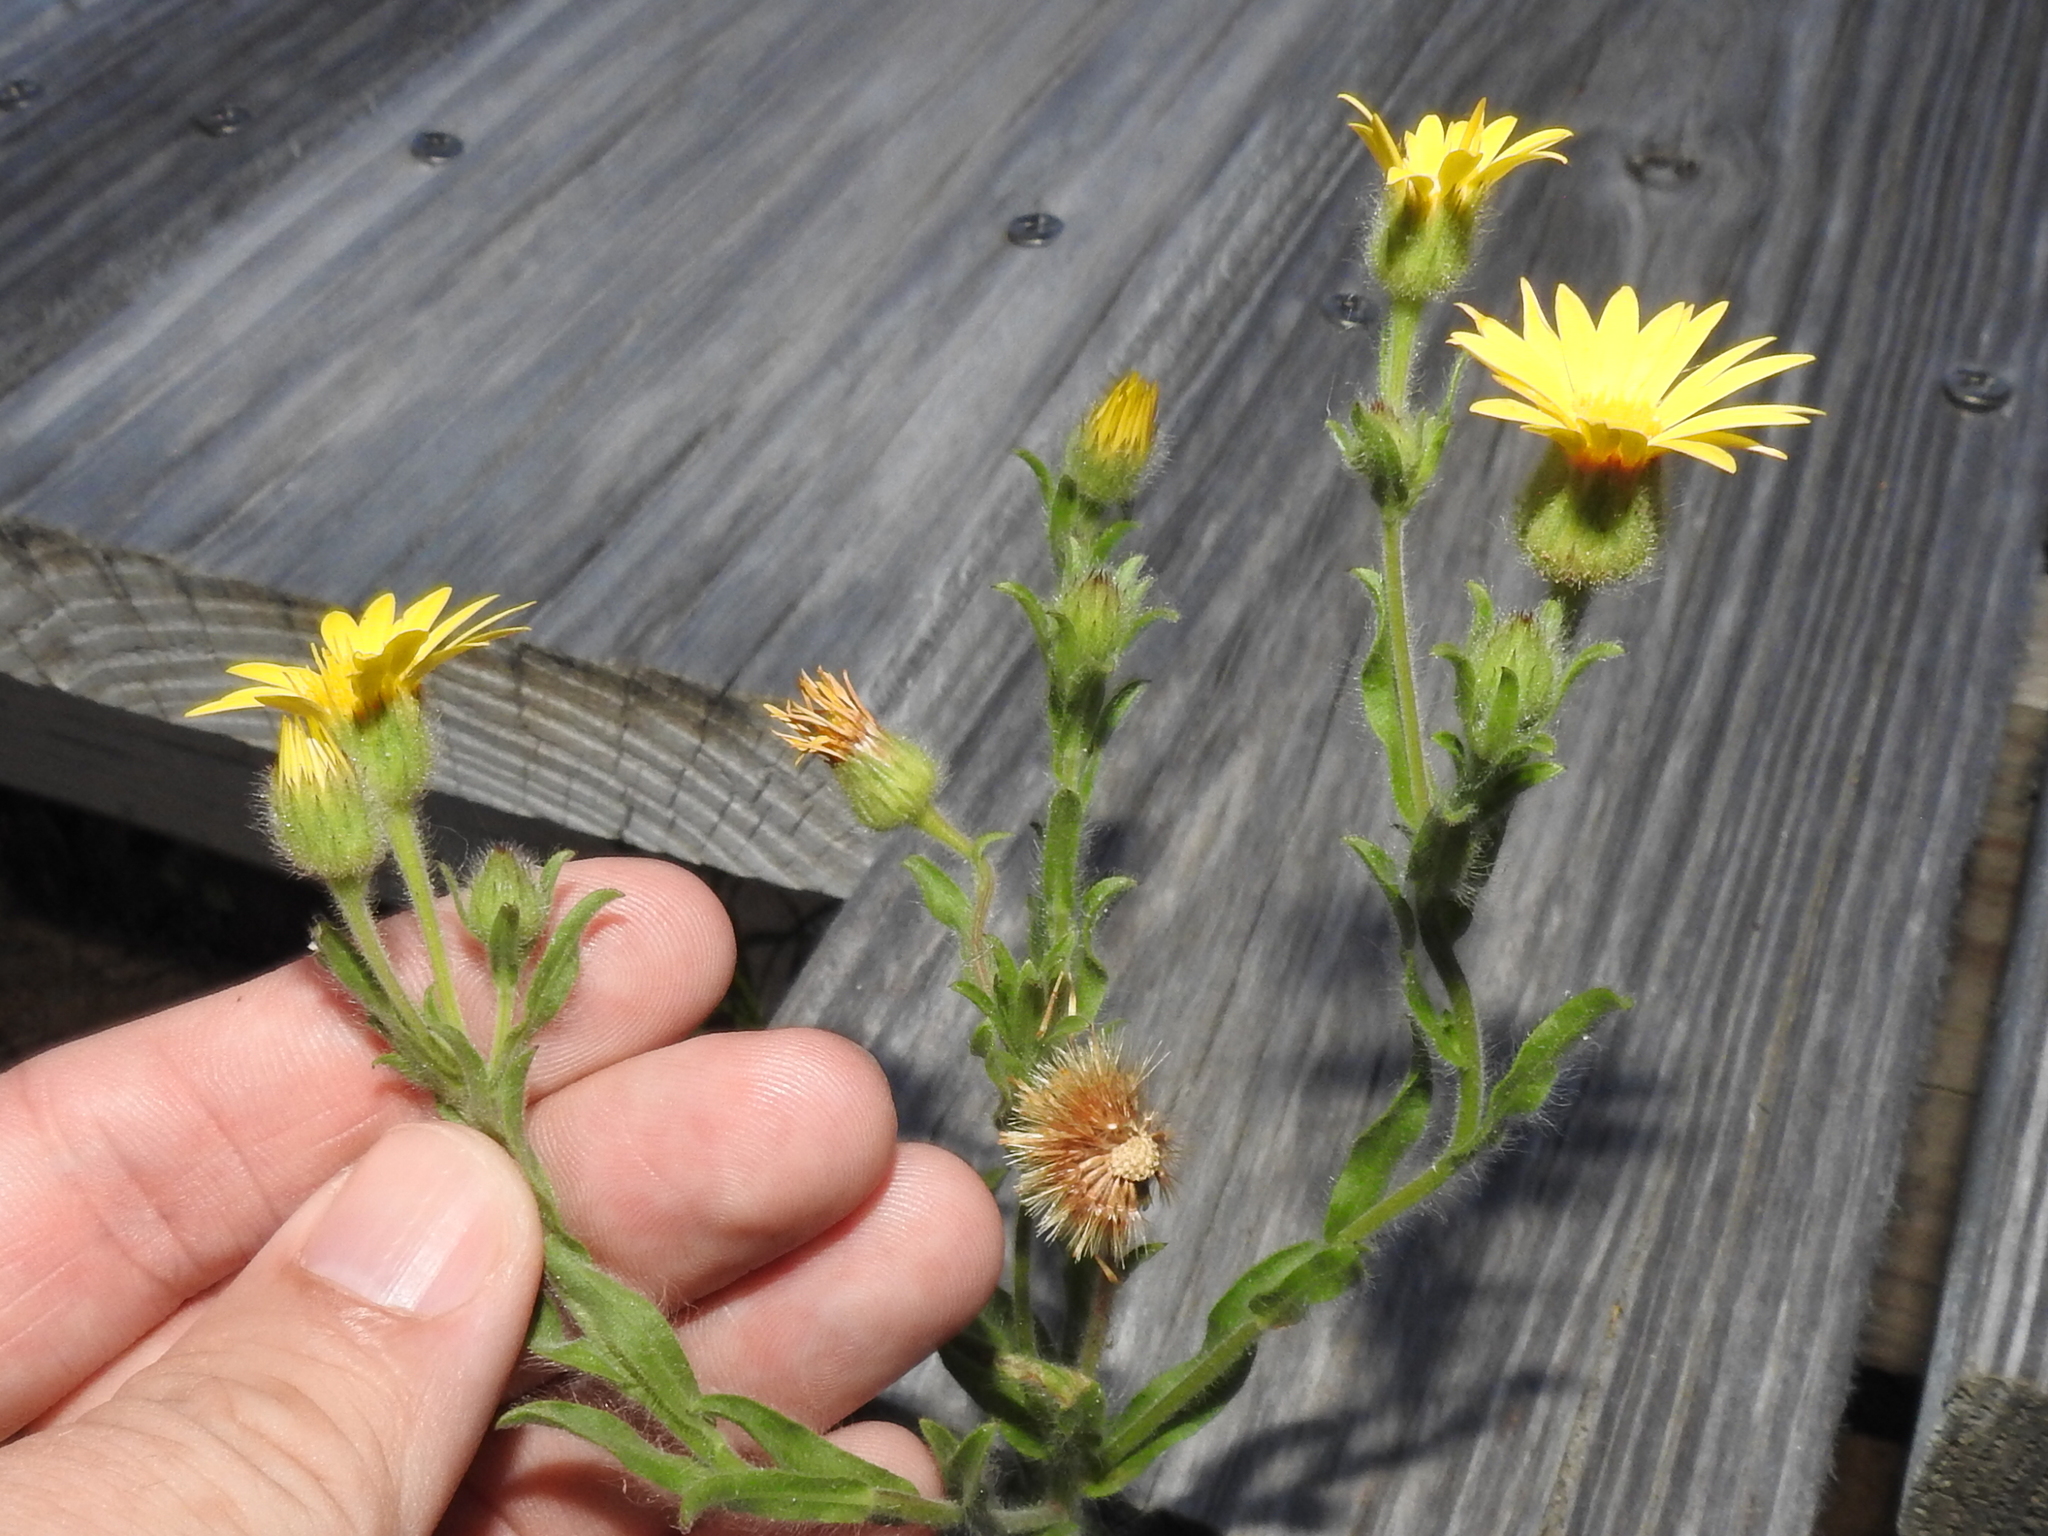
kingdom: Plantae
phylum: Tracheophyta
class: Magnoliopsida
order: Asterales
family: Asteraceae
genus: Bradburia
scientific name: Bradburia pilosa
